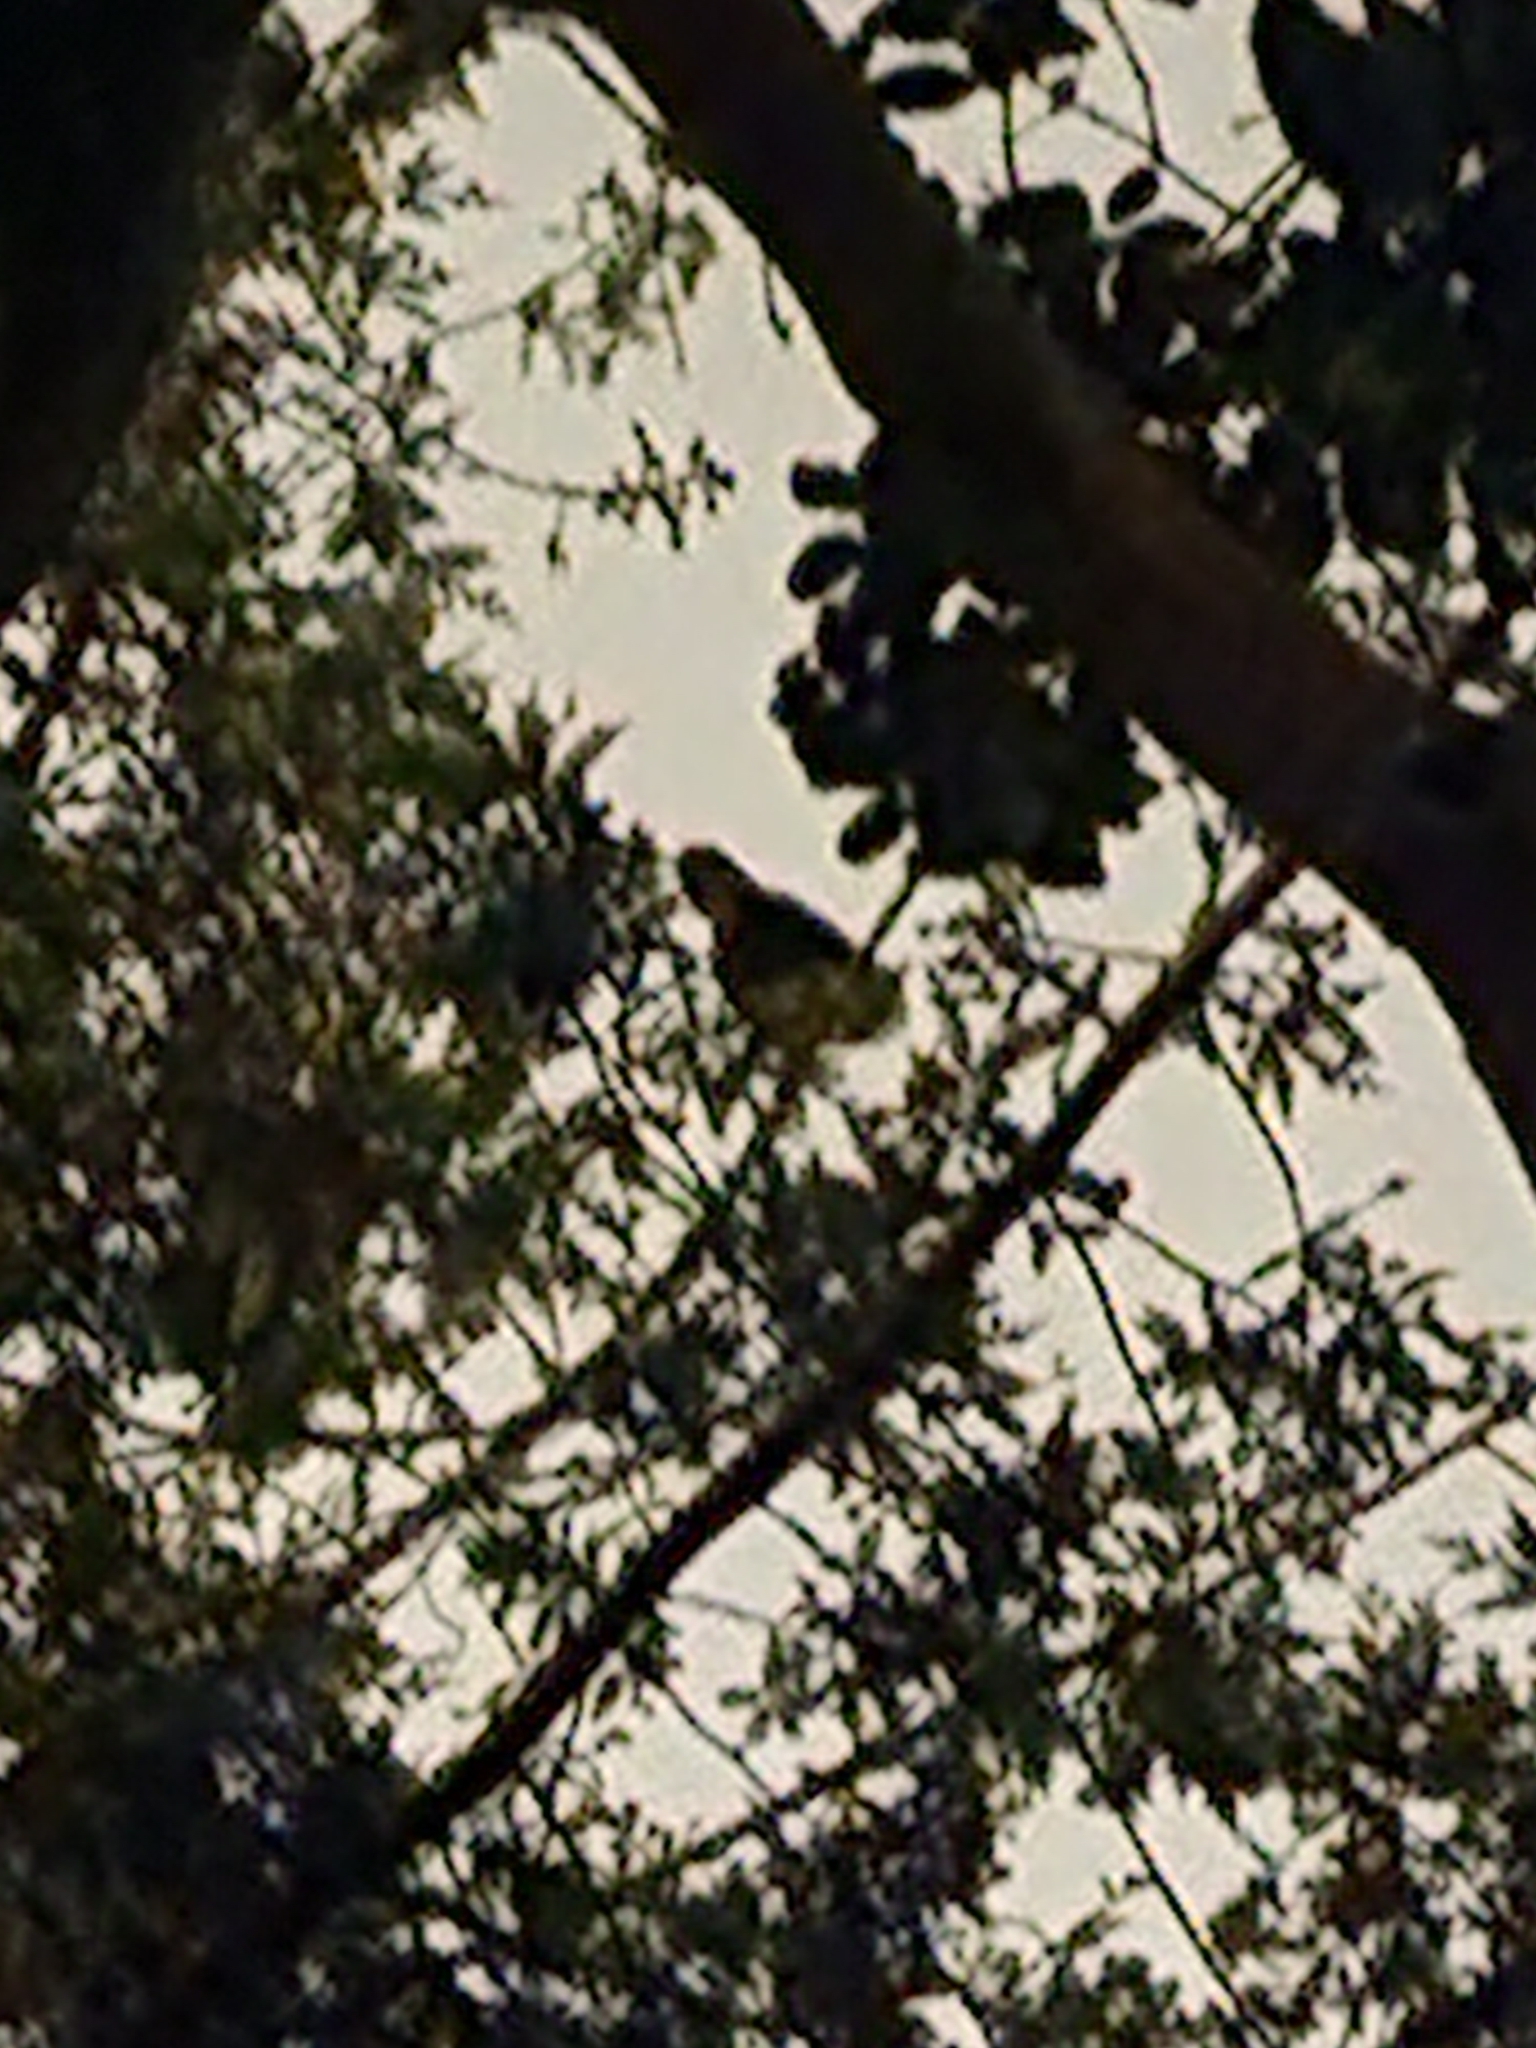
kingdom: Animalia
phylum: Chordata
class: Aves
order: Strigiformes
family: Strigidae
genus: Bubo
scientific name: Bubo virginianus
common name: Great horned owl
